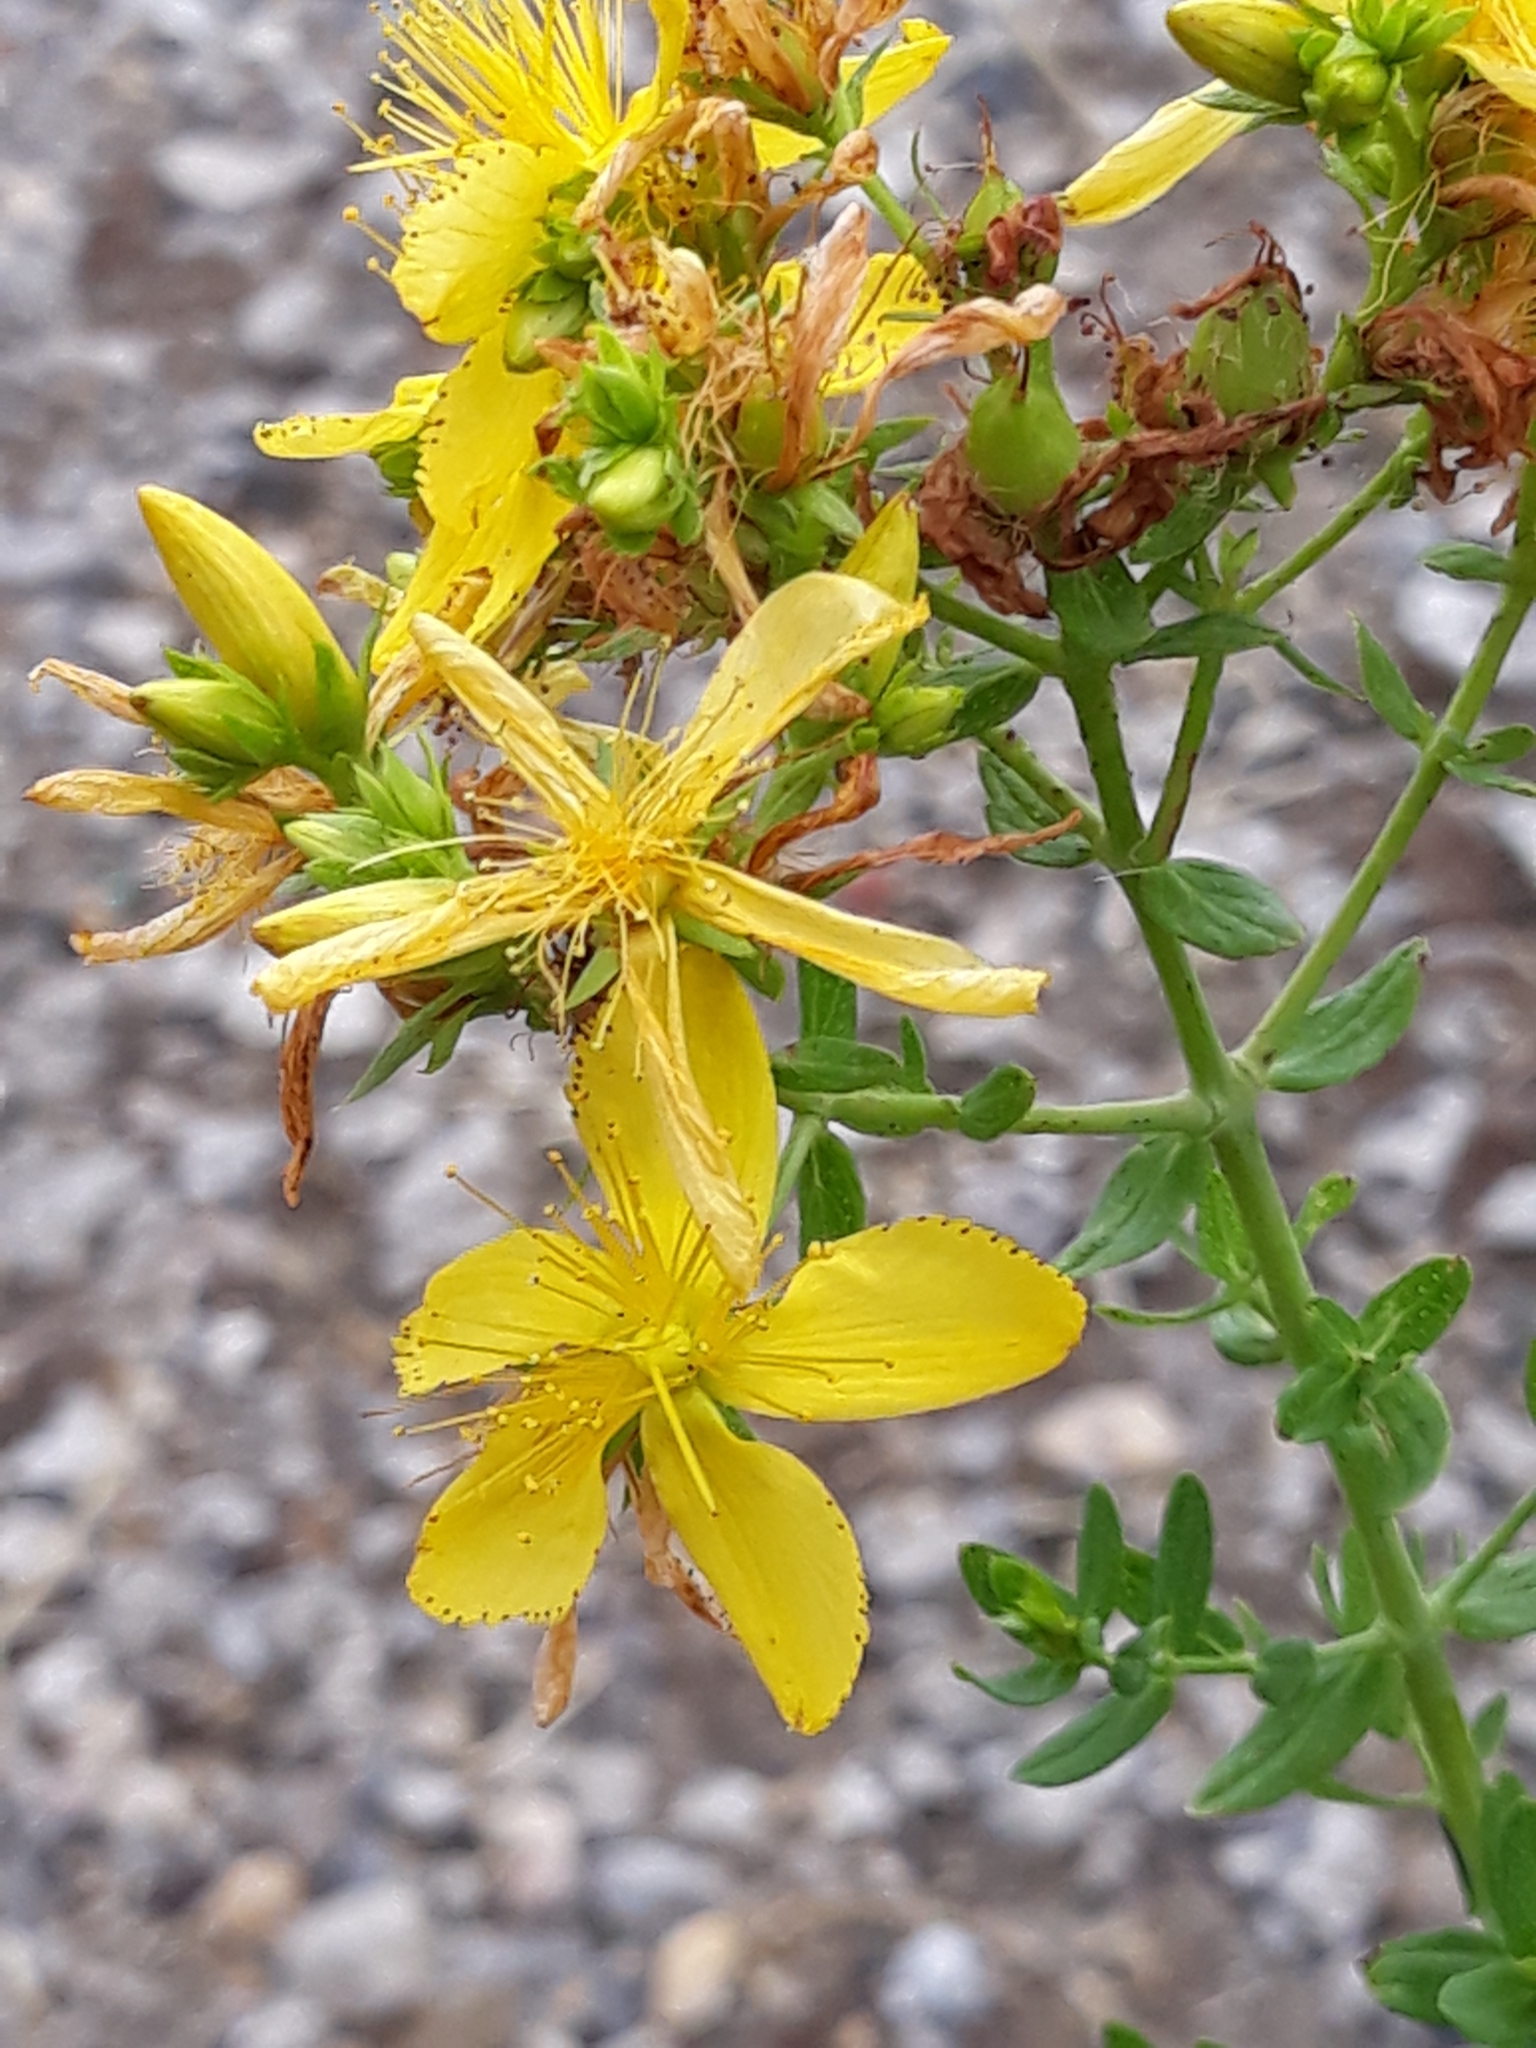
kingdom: Plantae
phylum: Tracheophyta
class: Magnoliopsida
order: Malpighiales
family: Hypericaceae
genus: Hypericum
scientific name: Hypericum perforatum
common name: Common st. johnswort
